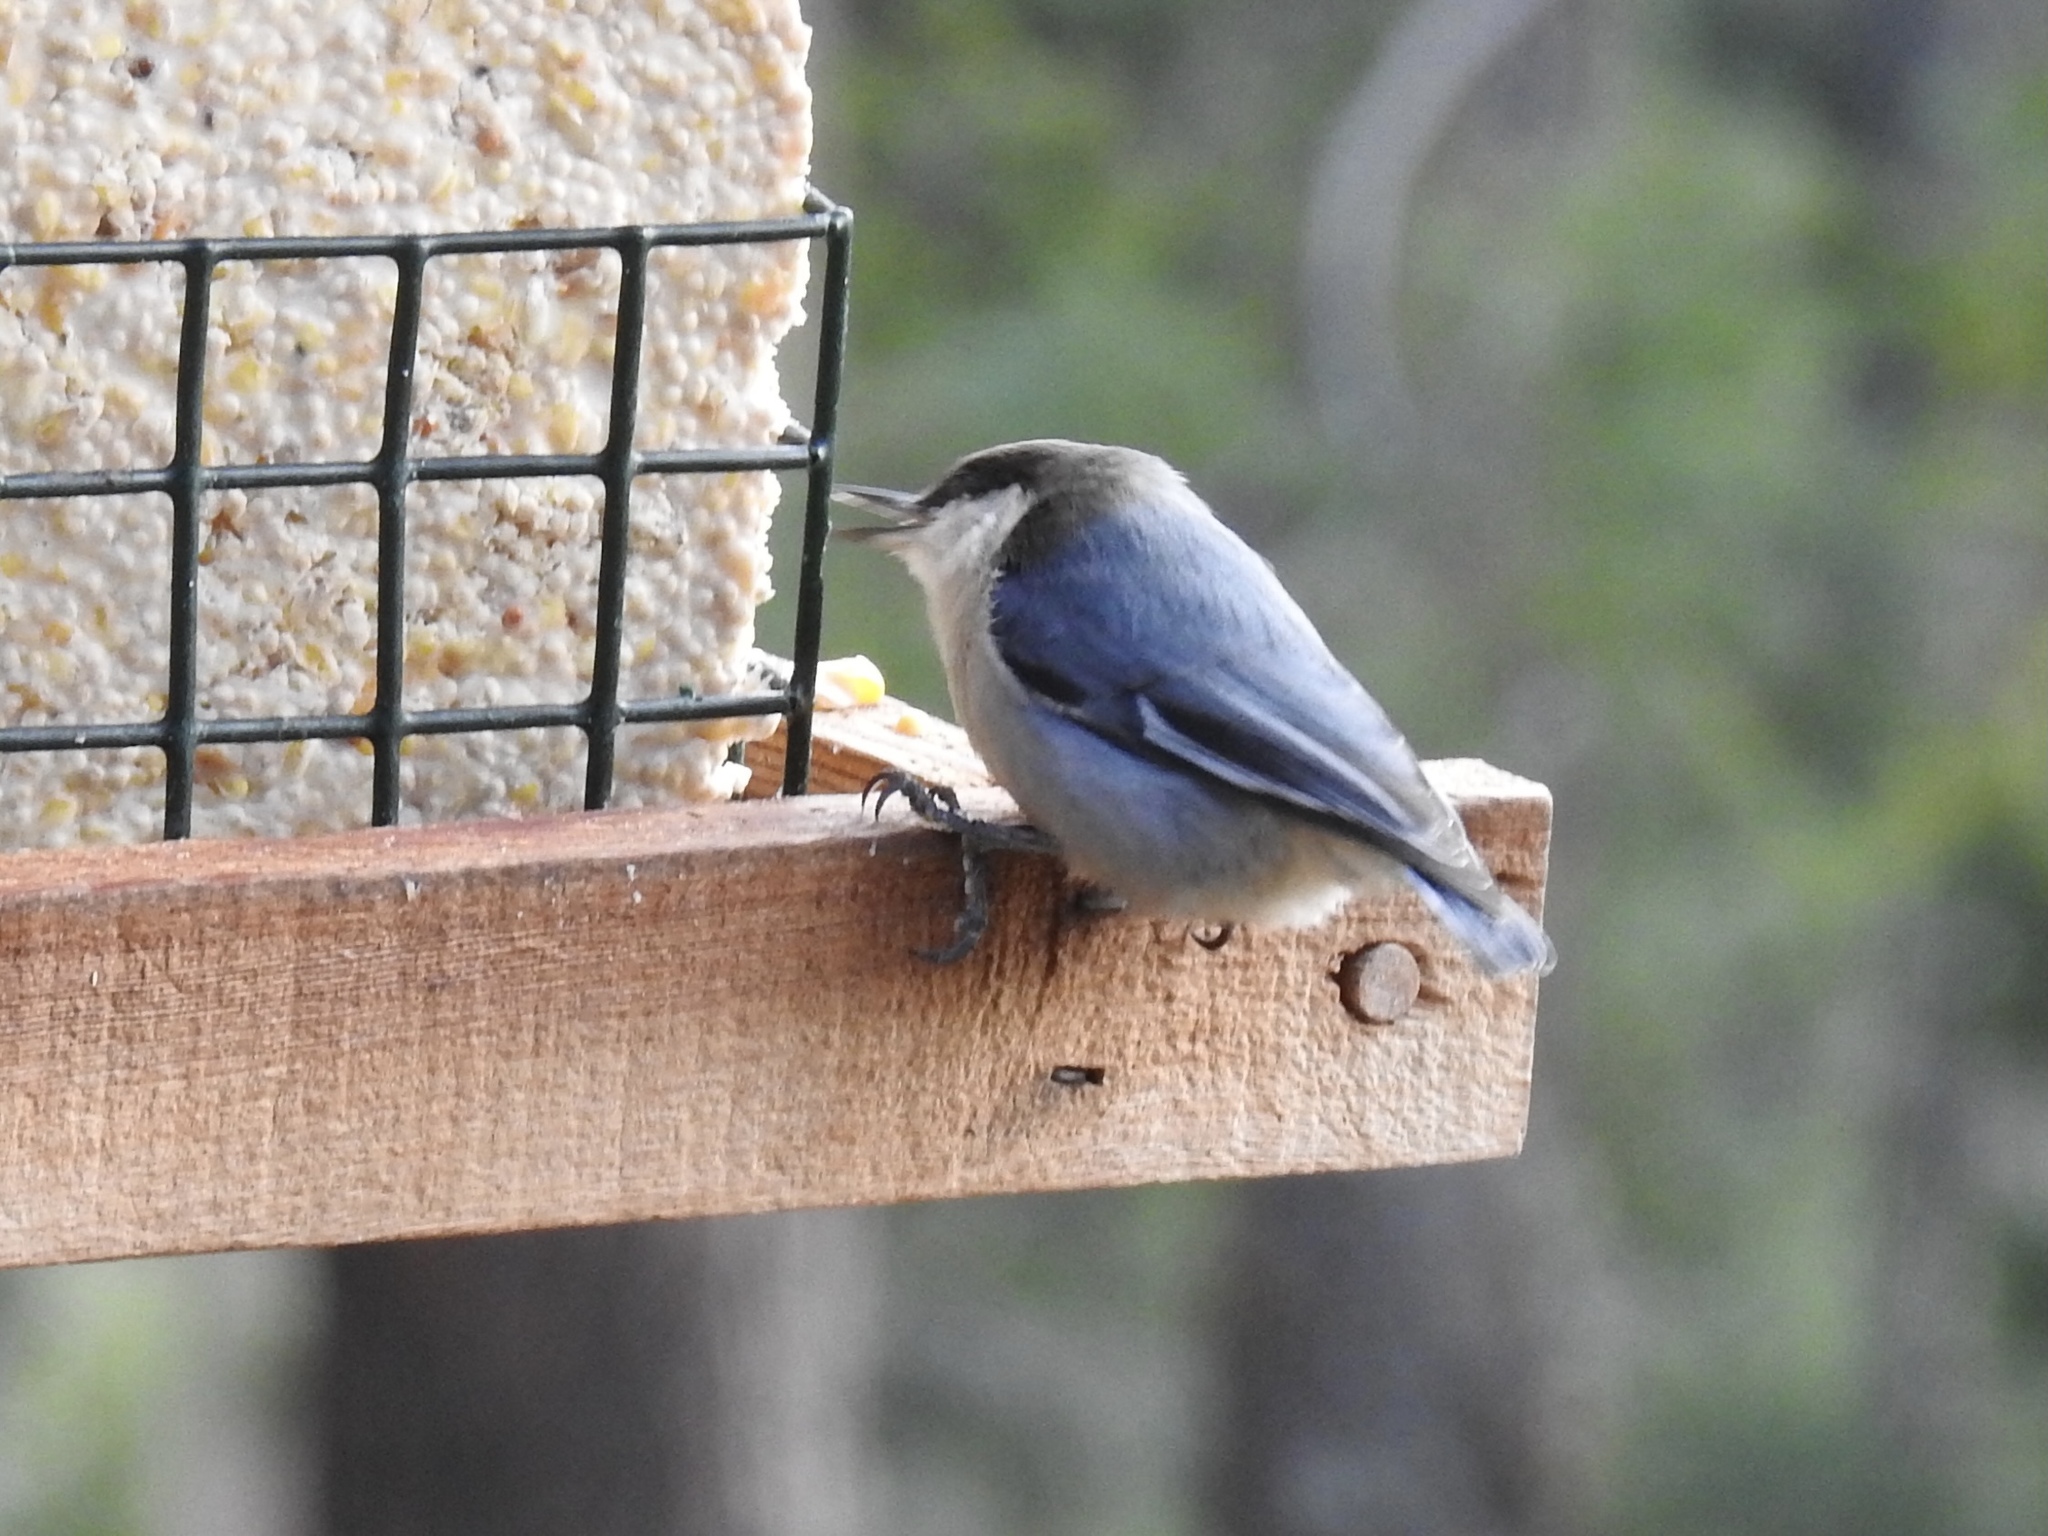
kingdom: Animalia
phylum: Chordata
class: Aves
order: Passeriformes
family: Sittidae
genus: Sitta
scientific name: Sitta pygmaea
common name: Pygmy nuthatch
